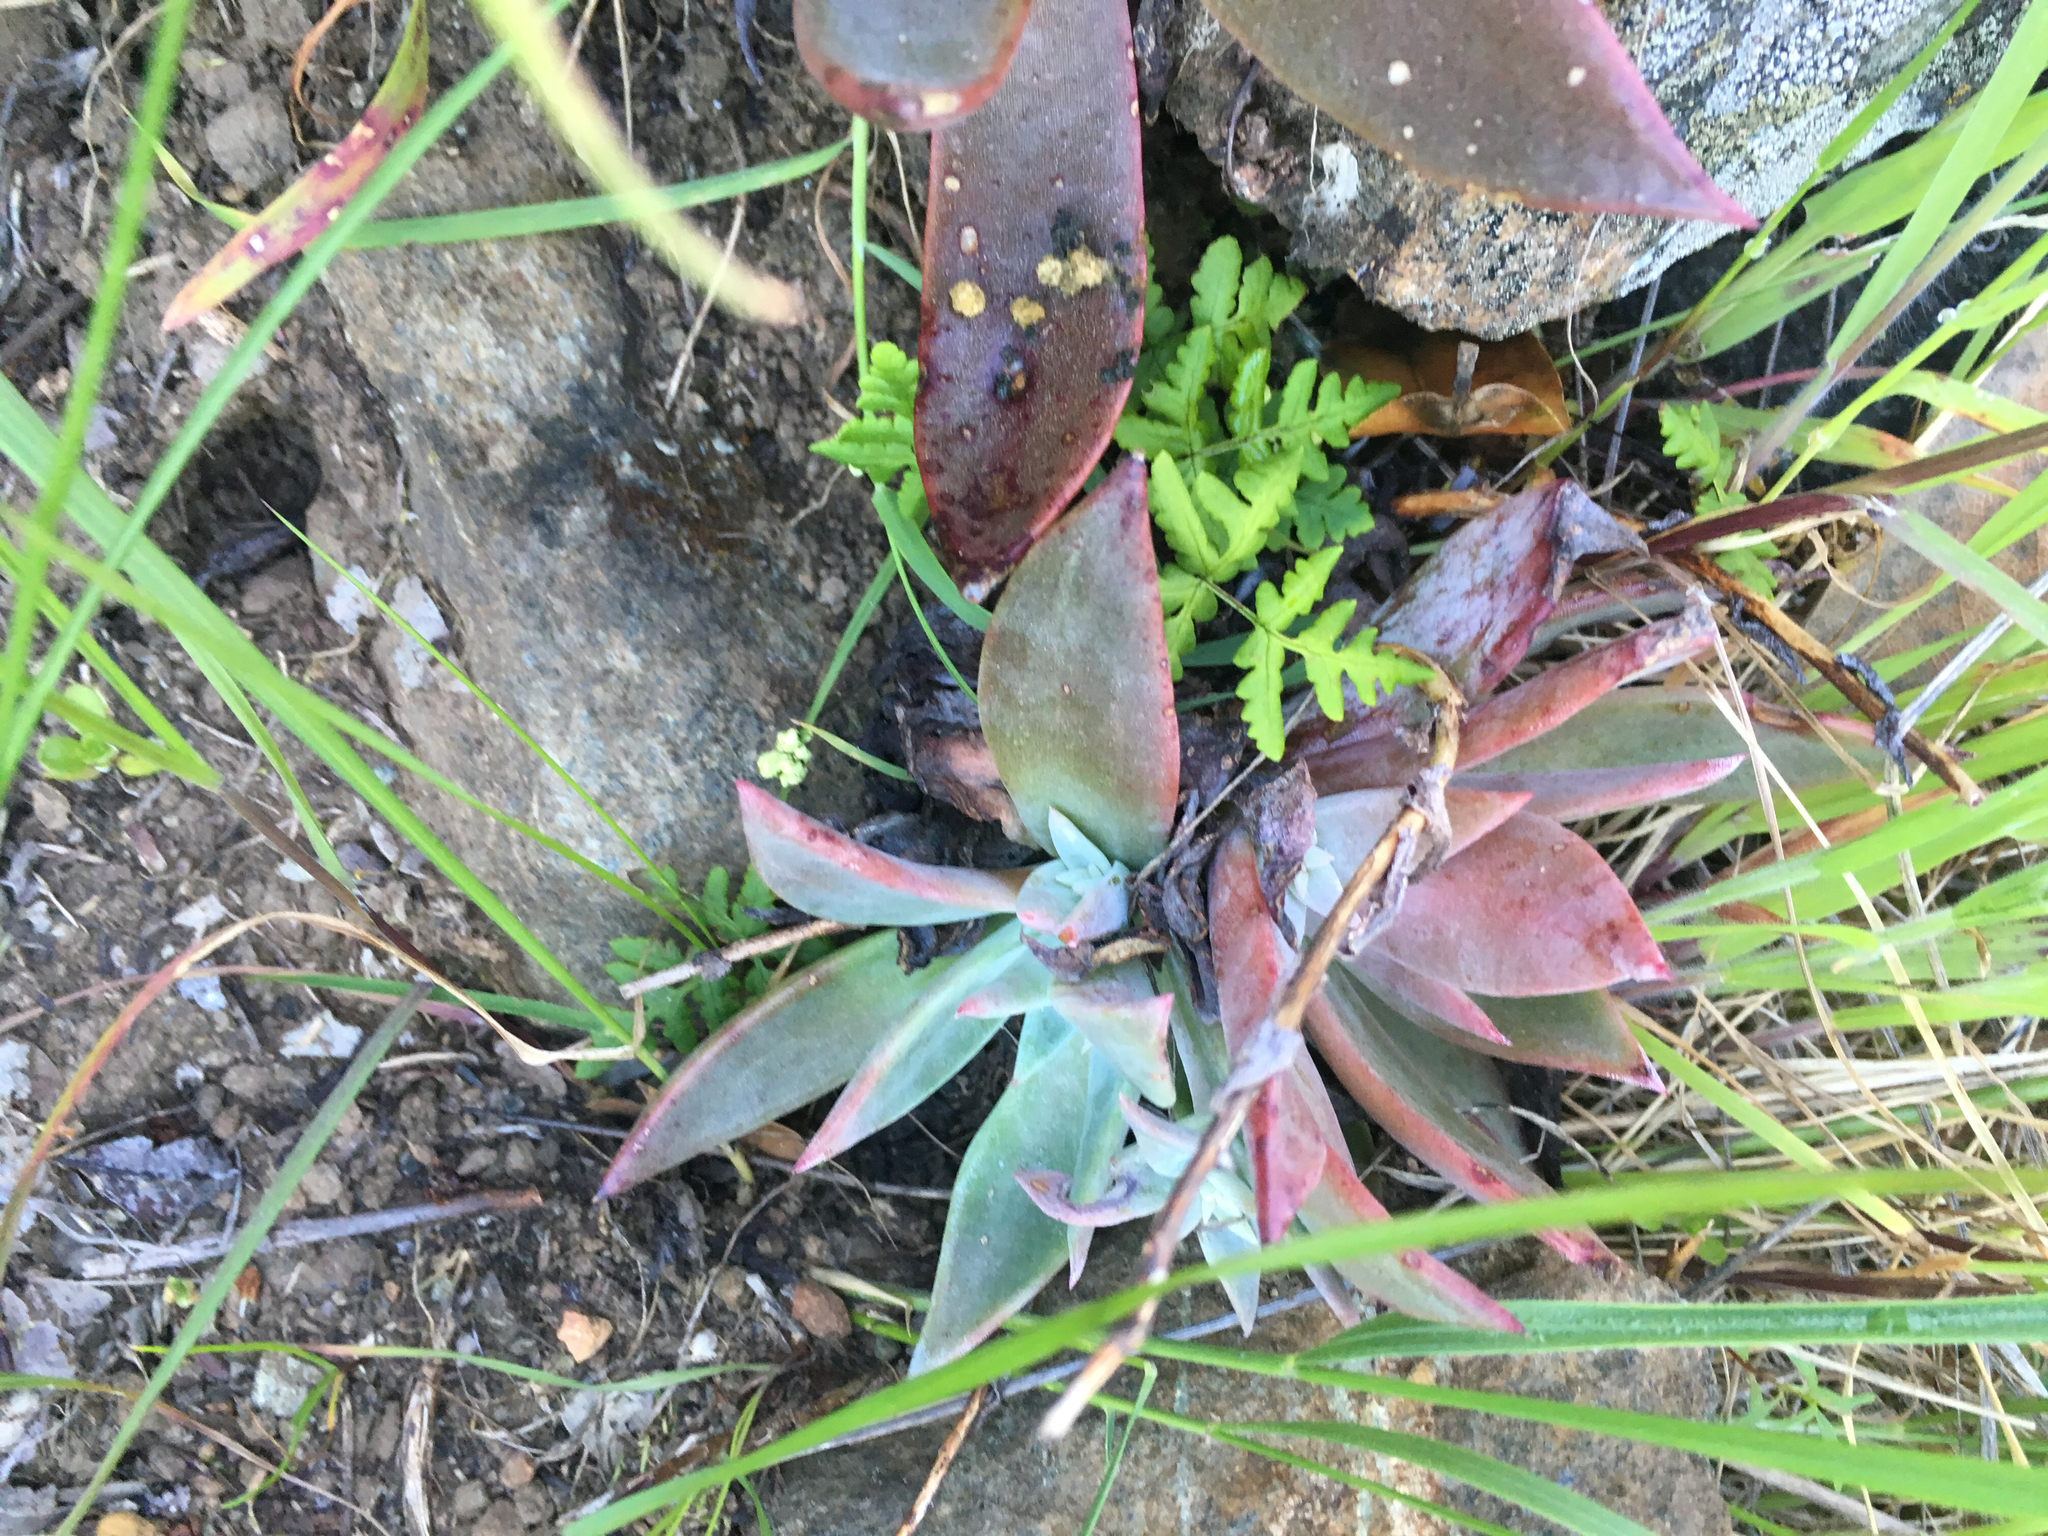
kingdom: Plantae
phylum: Tracheophyta
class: Magnoliopsida
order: Saxifragales
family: Crassulaceae
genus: Dudleya
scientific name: Dudleya cymosa
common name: Canyon dudleya
